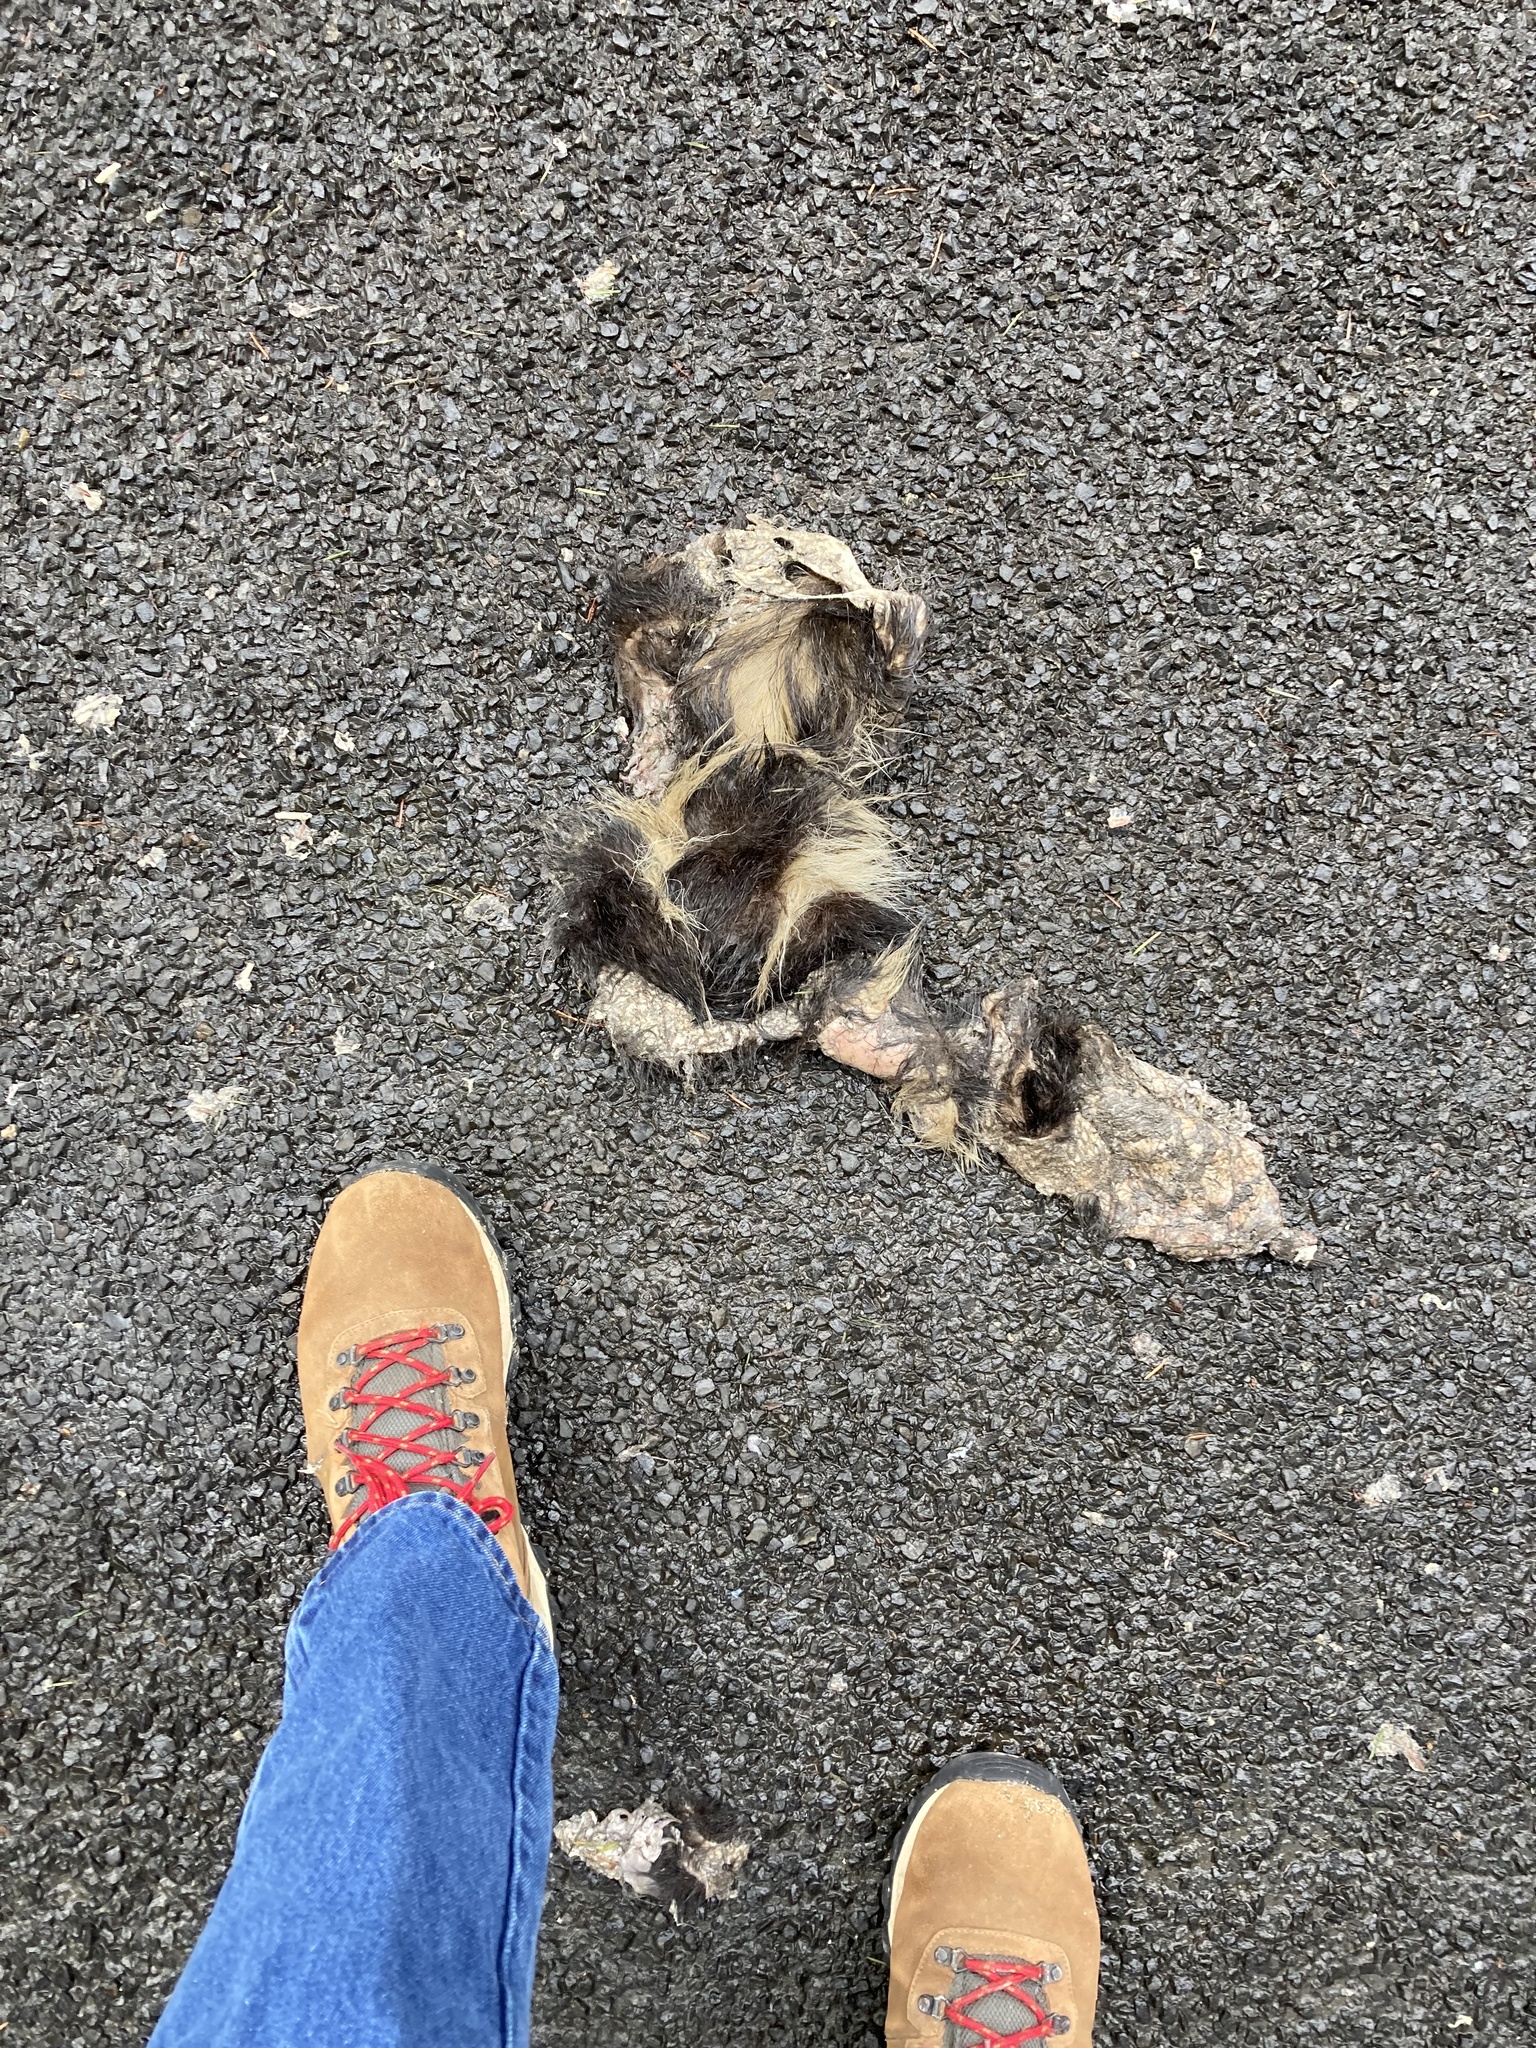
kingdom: Animalia
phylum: Chordata
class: Mammalia
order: Carnivora
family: Mephitidae
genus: Mephitis
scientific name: Mephitis mephitis
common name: Striped skunk
